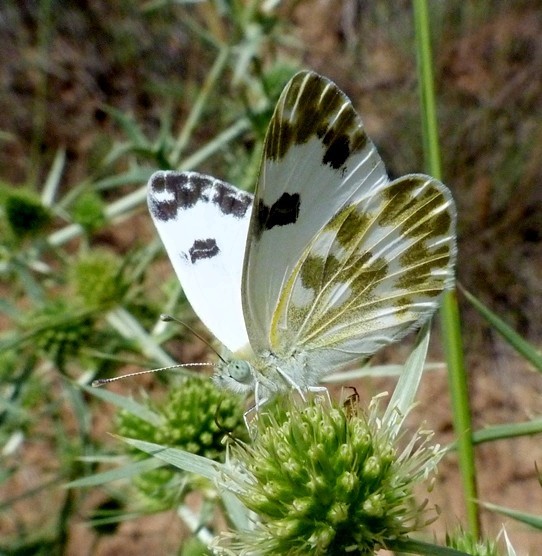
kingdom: Animalia
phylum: Arthropoda
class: Insecta
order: Lepidoptera
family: Pieridae
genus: Pontia
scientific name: Pontia daplidice
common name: Bath white
